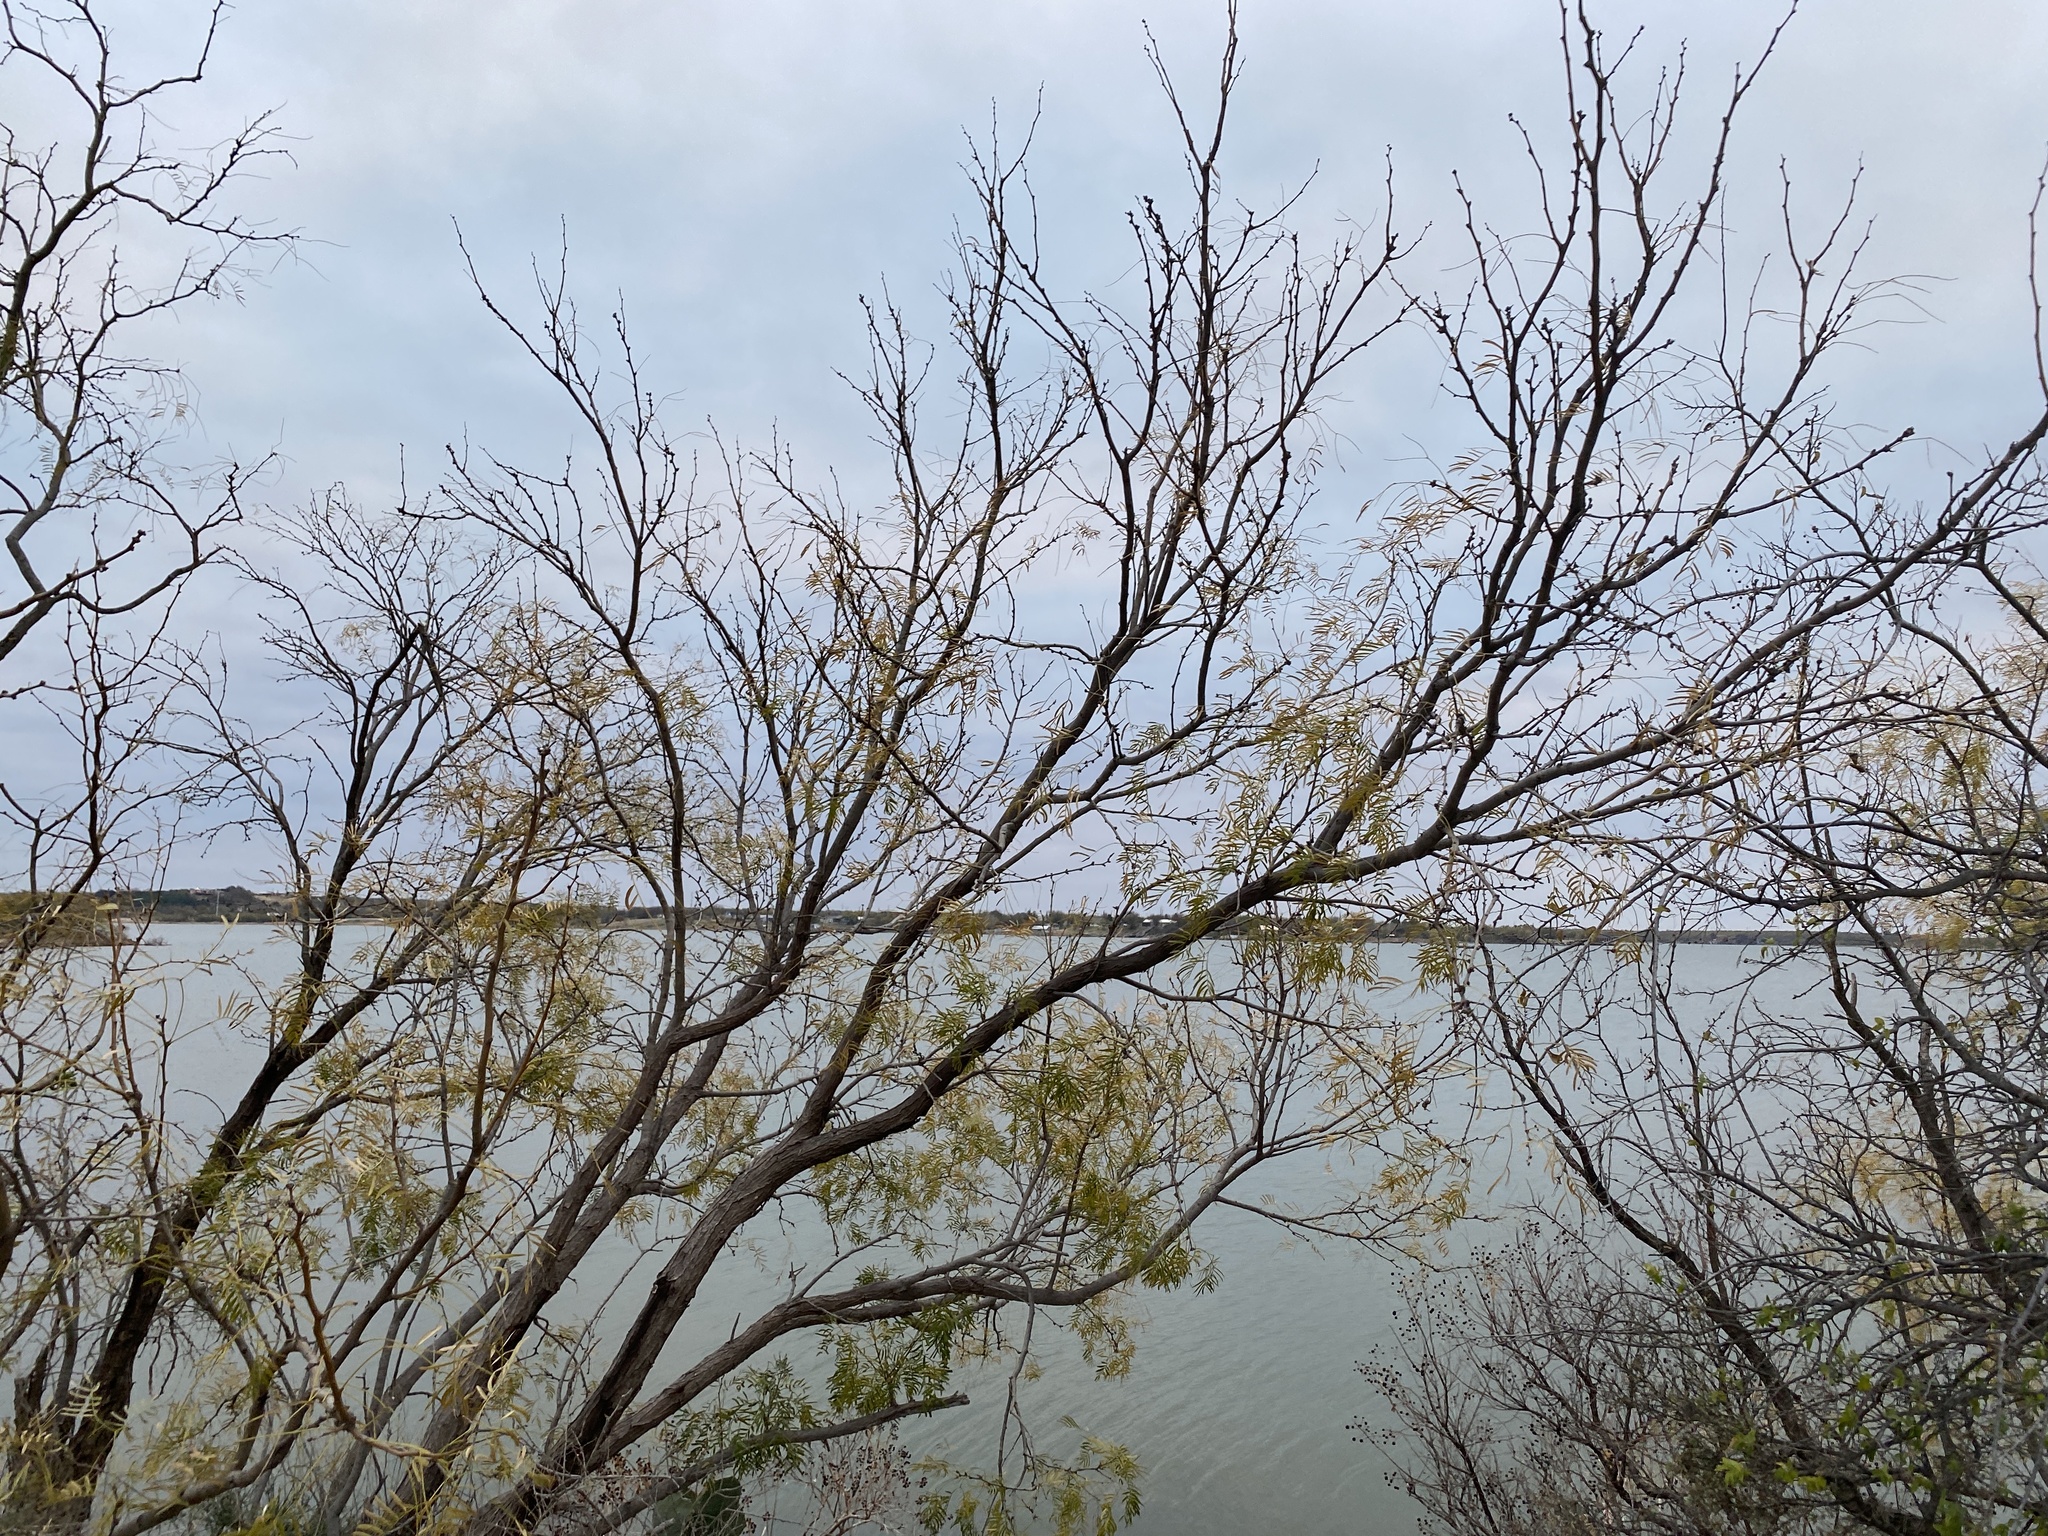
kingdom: Plantae
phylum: Tracheophyta
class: Magnoliopsida
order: Fabales
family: Fabaceae
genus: Prosopis
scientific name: Prosopis glandulosa
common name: Honey mesquite
